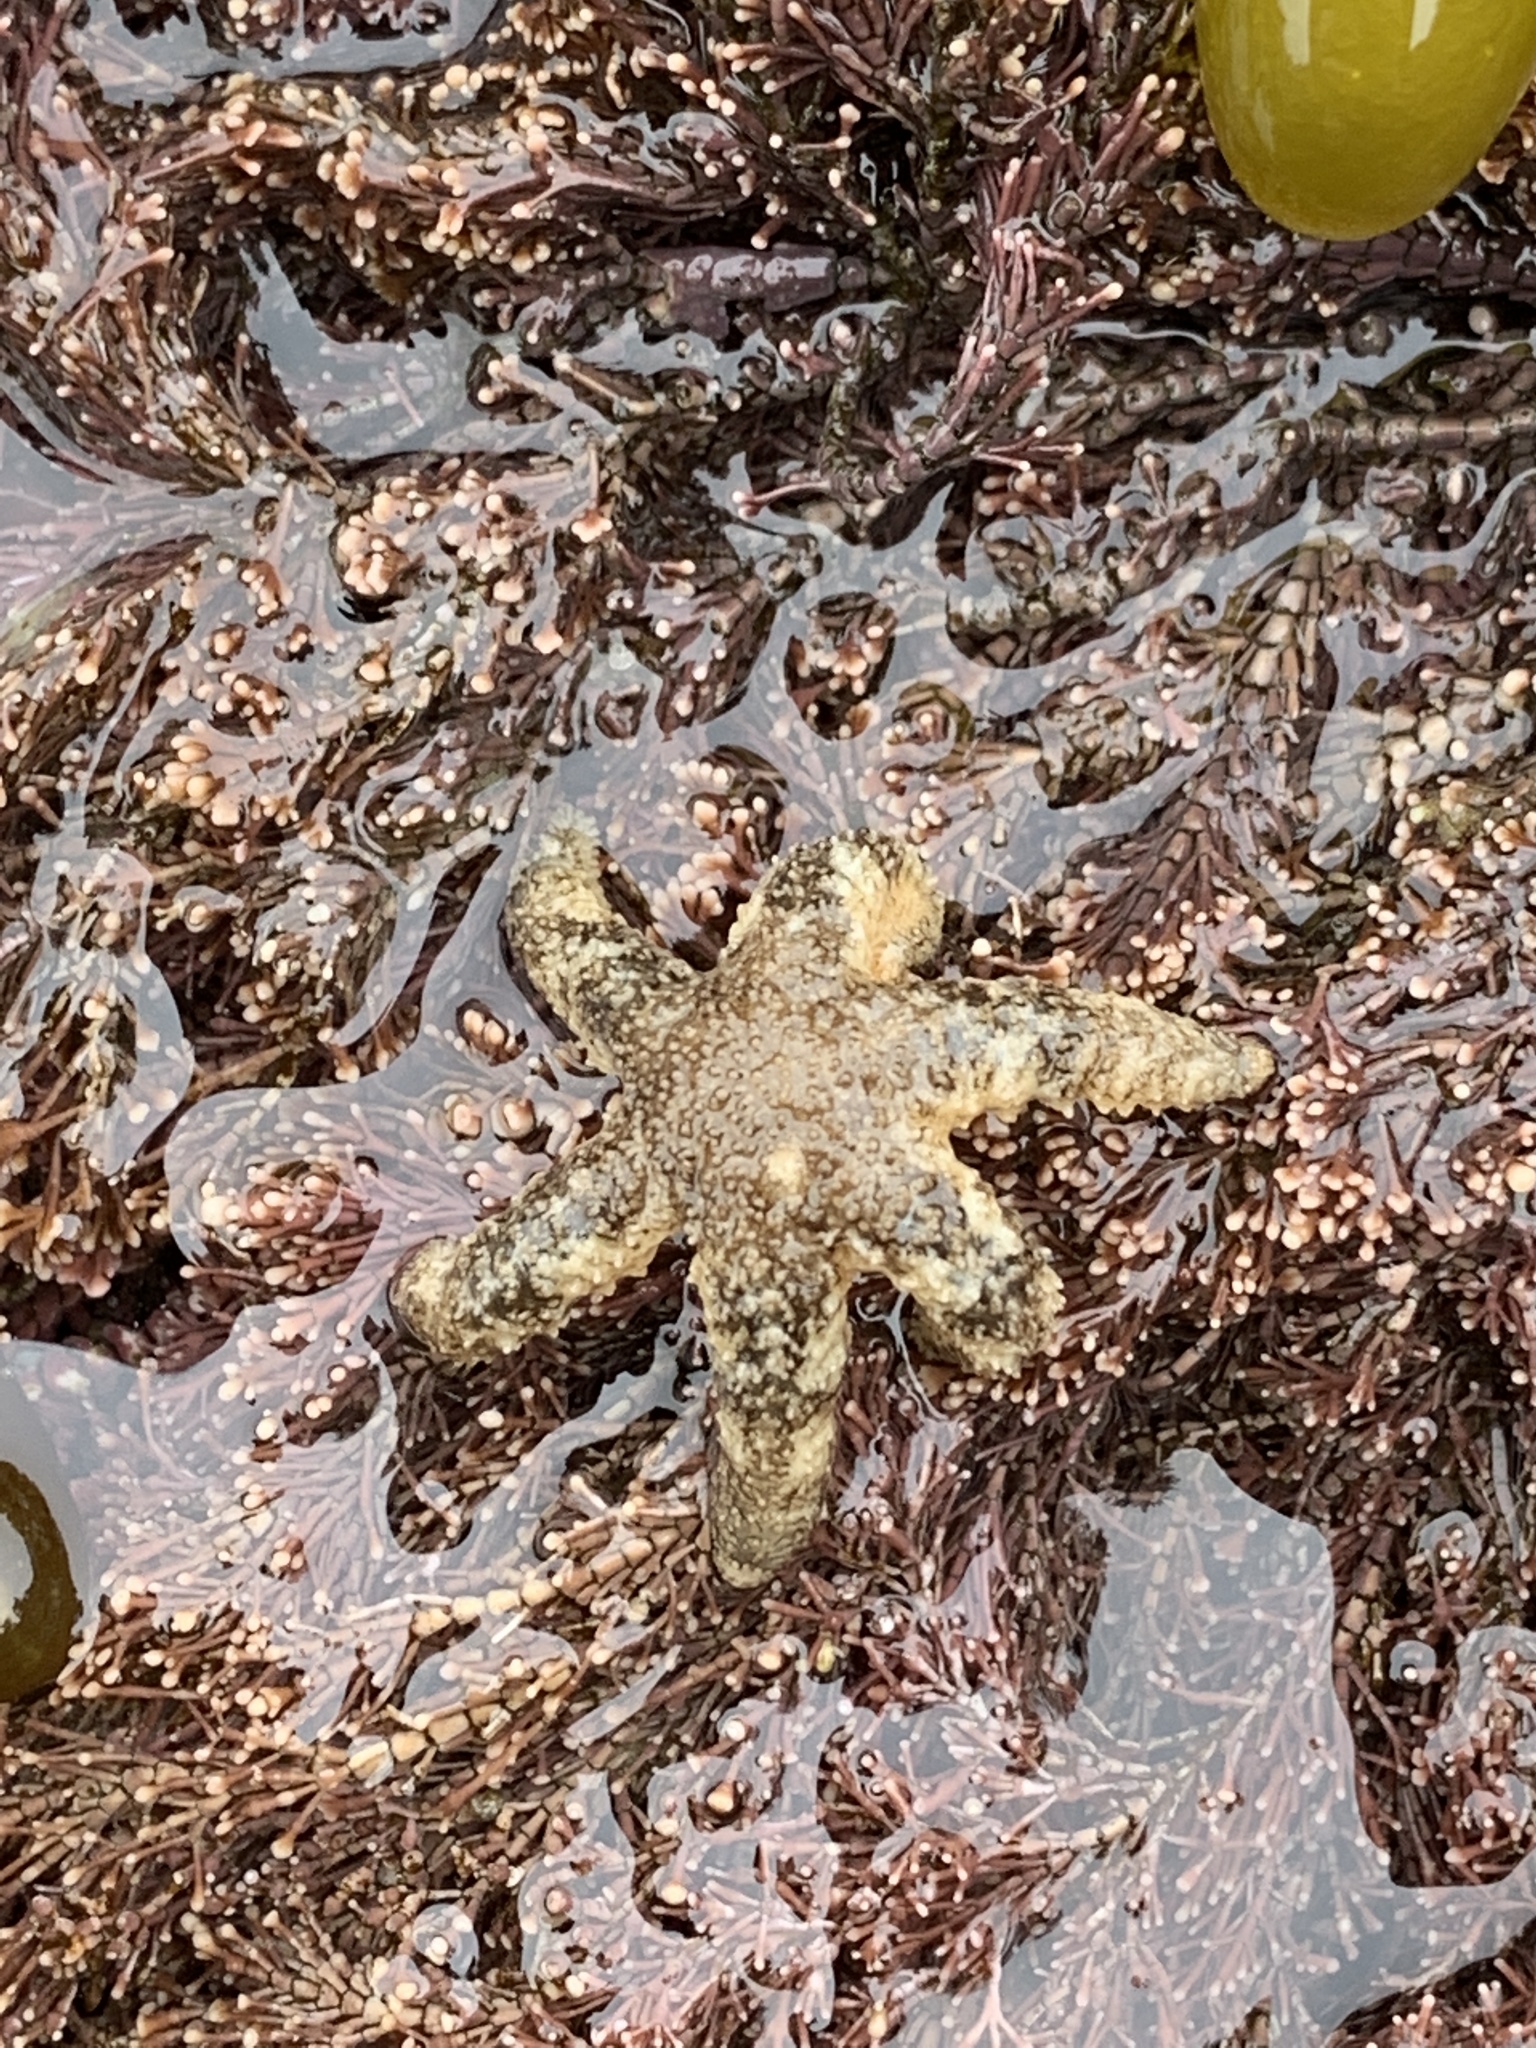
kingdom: Animalia
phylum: Echinodermata
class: Asteroidea
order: Forcipulatida
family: Asteriidae
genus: Leptasterias
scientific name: Leptasterias hexactis
